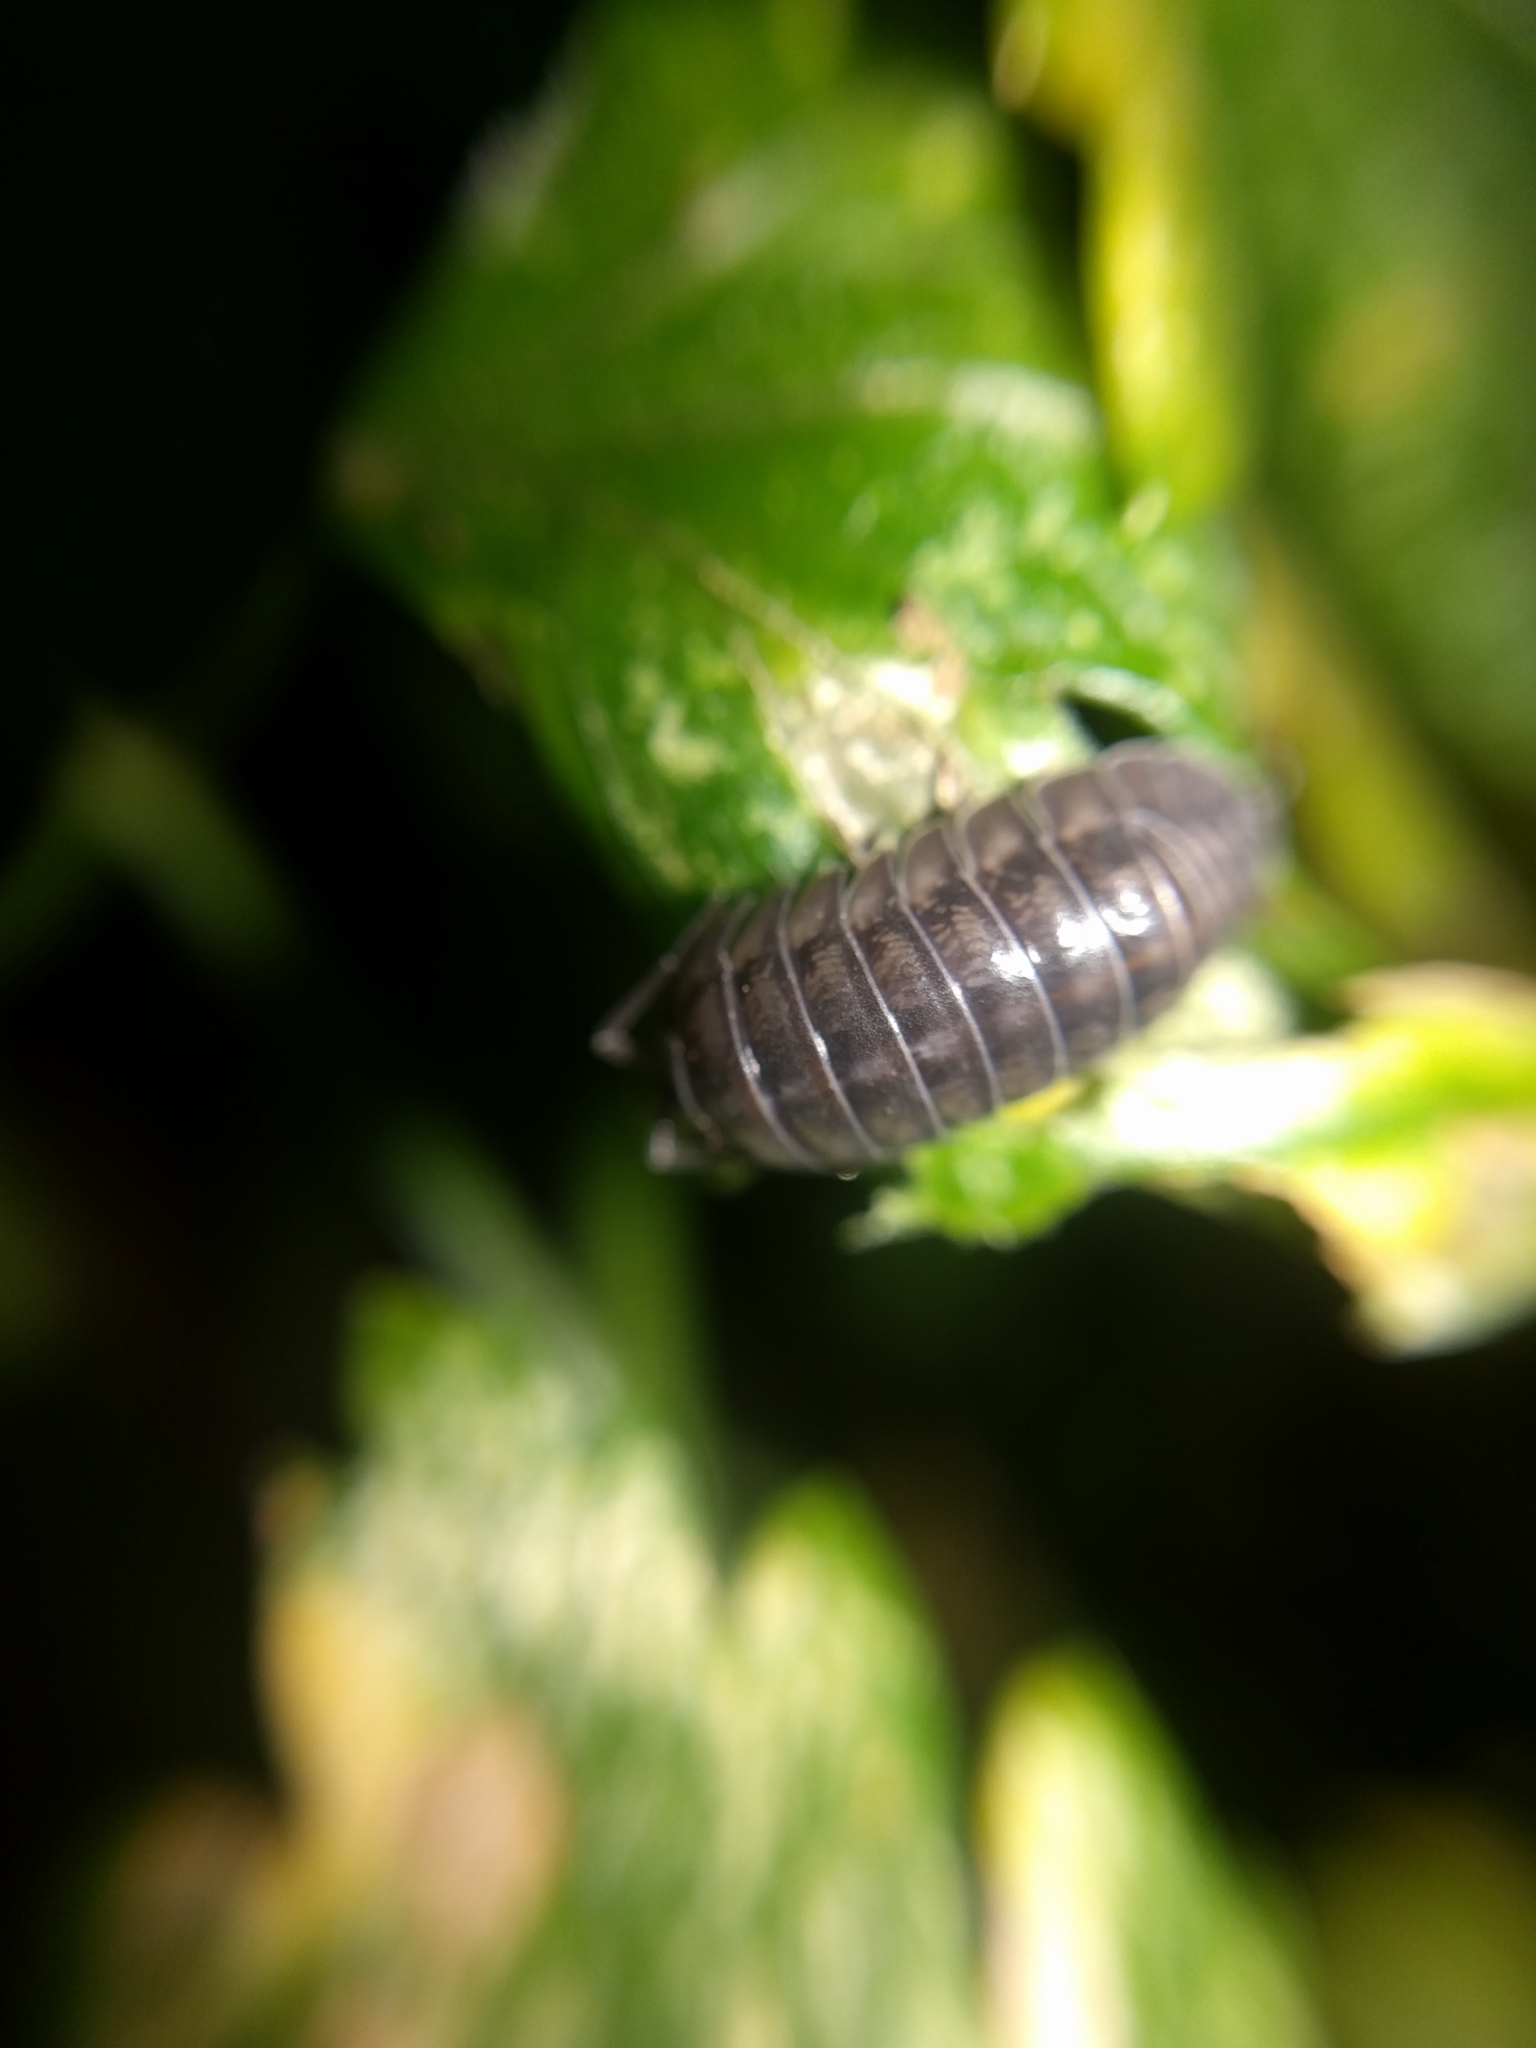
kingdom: Animalia
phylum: Arthropoda
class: Malacostraca
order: Isopoda
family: Armadillidiidae
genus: Armadillidium
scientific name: Armadillidium nasatum
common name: Isopod
